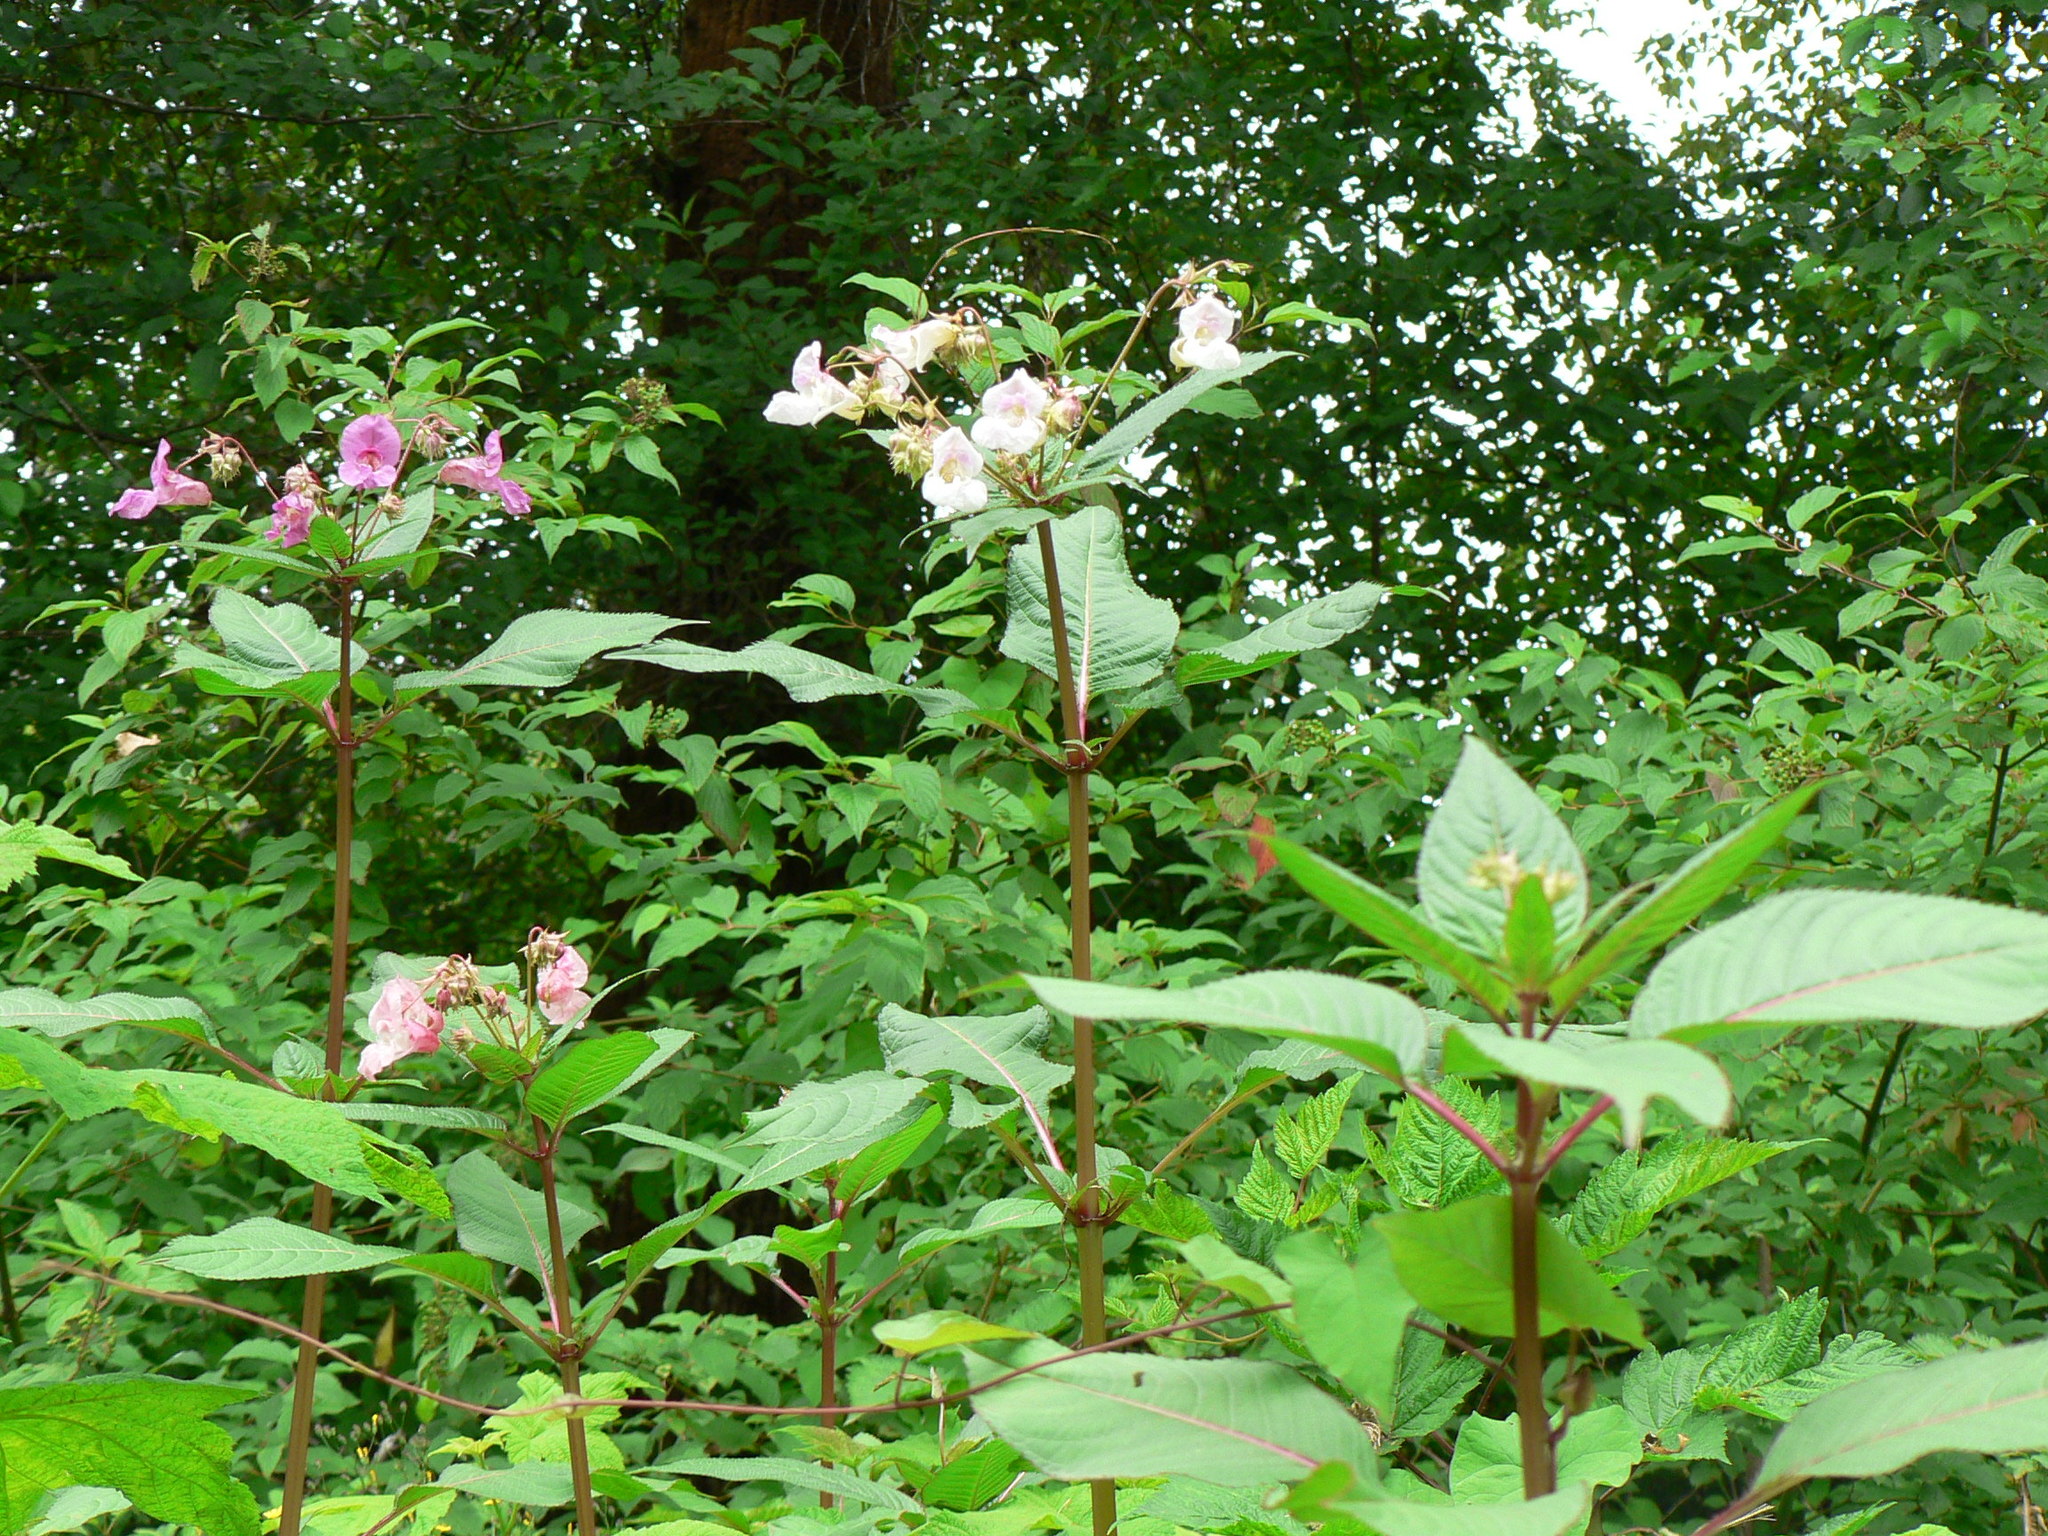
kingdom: Plantae
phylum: Tracheophyta
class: Magnoliopsida
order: Ericales
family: Balsaminaceae
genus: Impatiens
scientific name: Impatiens glandulifera
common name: Himalayan balsam
